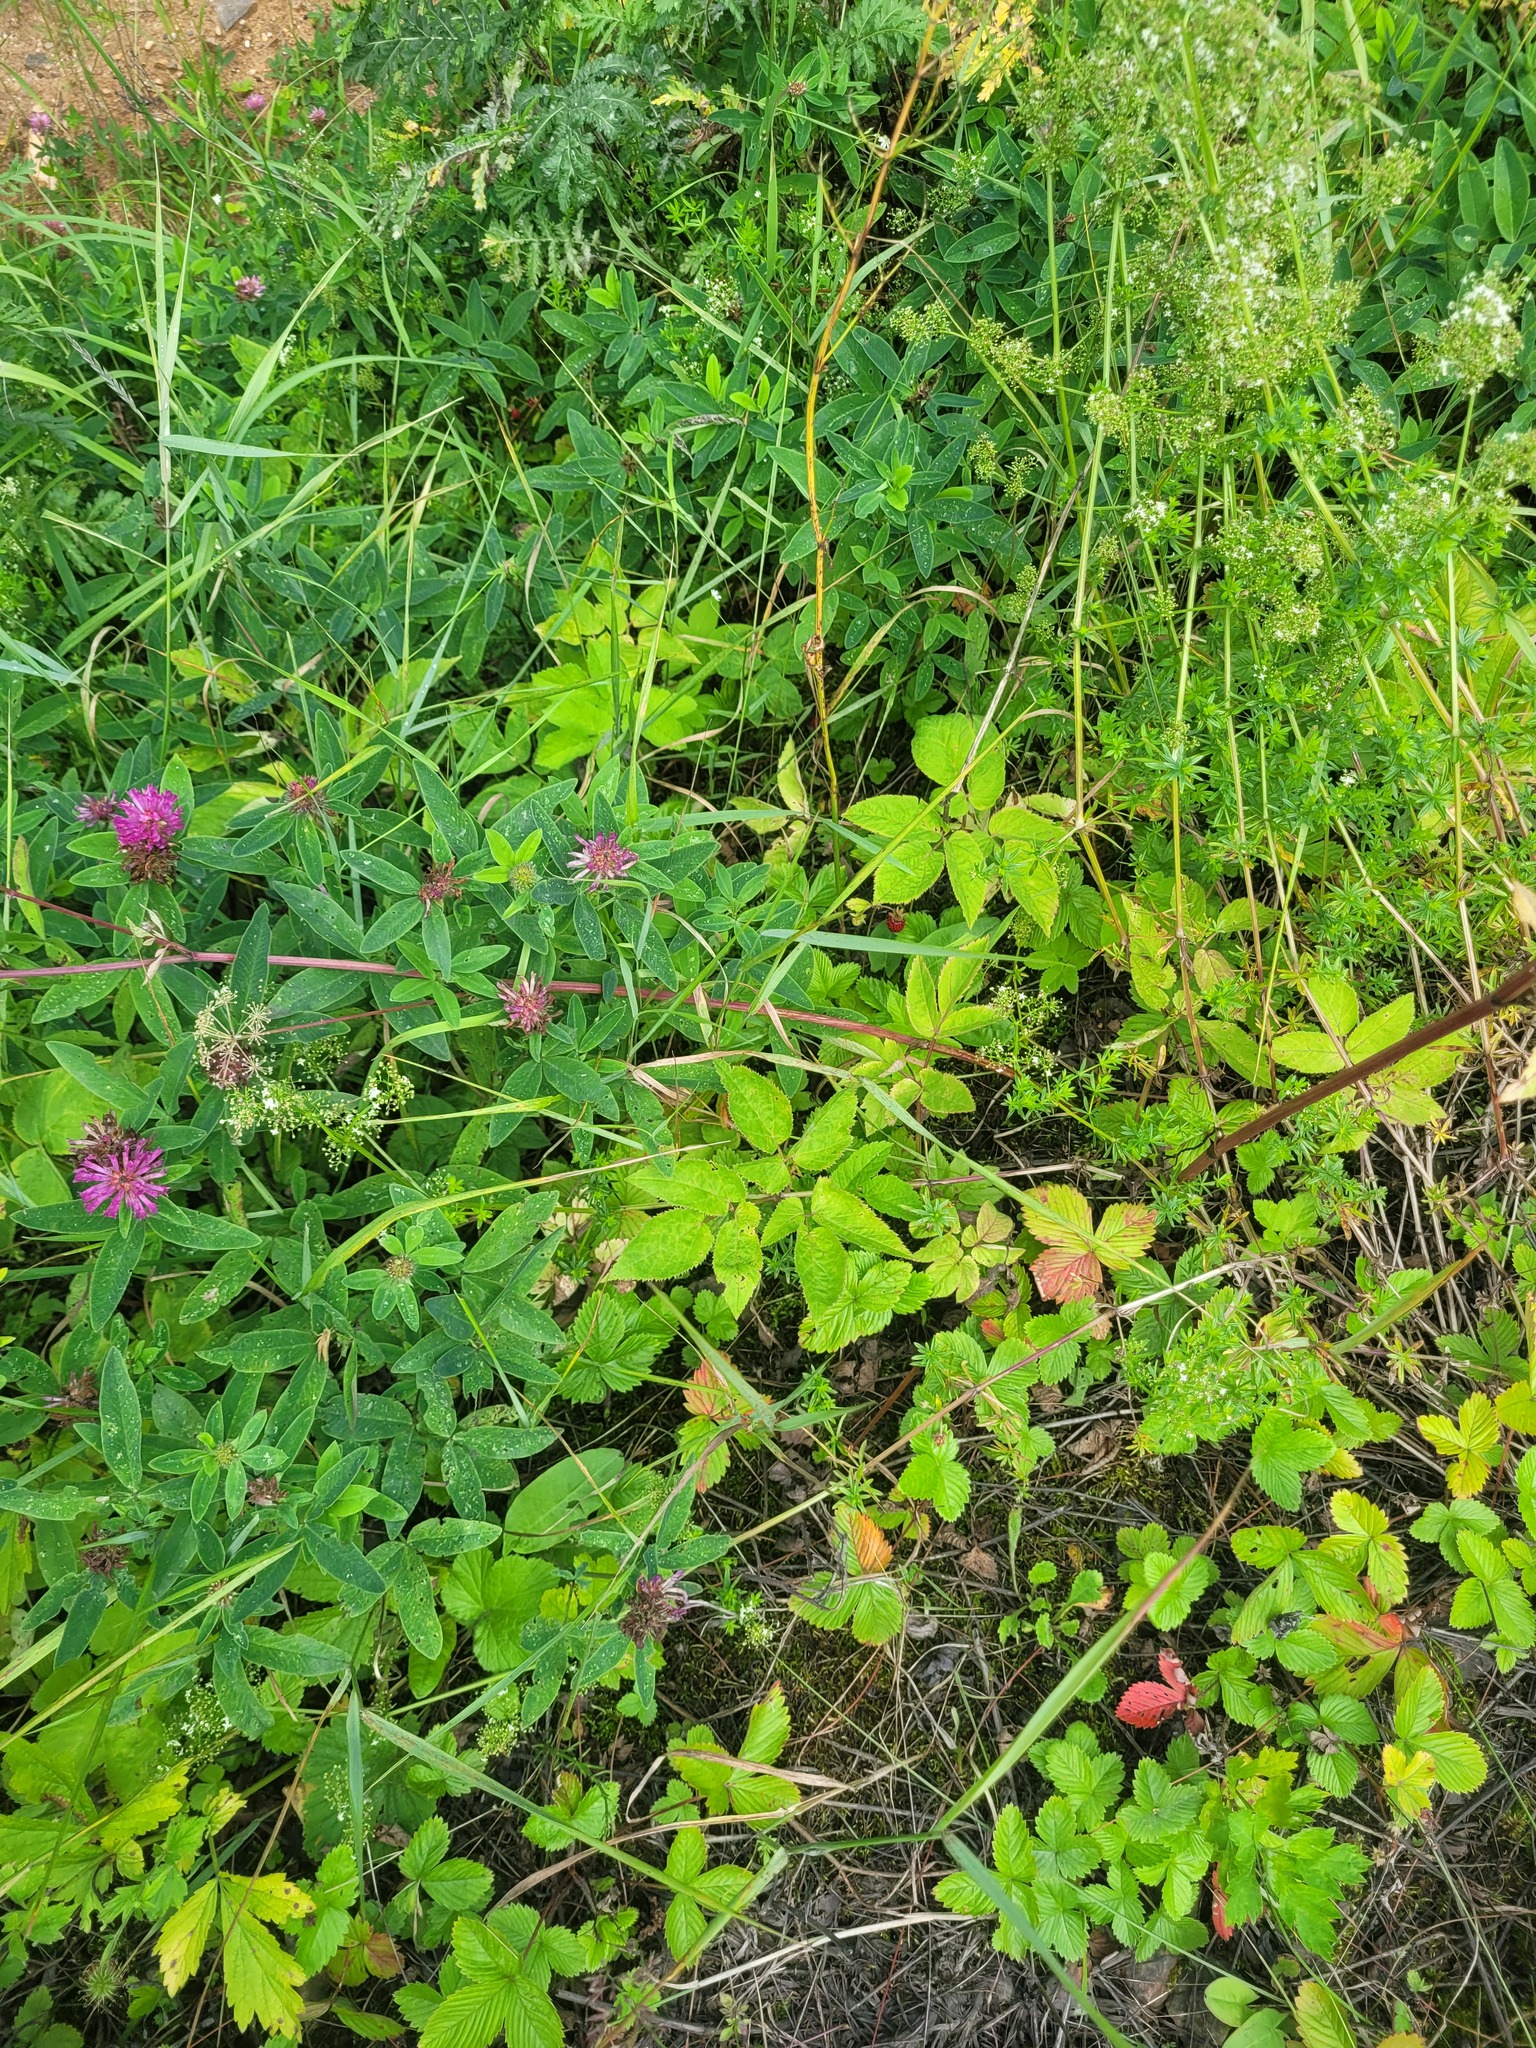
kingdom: Plantae
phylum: Tracheophyta
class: Magnoliopsida
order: Apiales
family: Apiaceae
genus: Aegopodium
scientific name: Aegopodium podagraria
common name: Ground-elder
